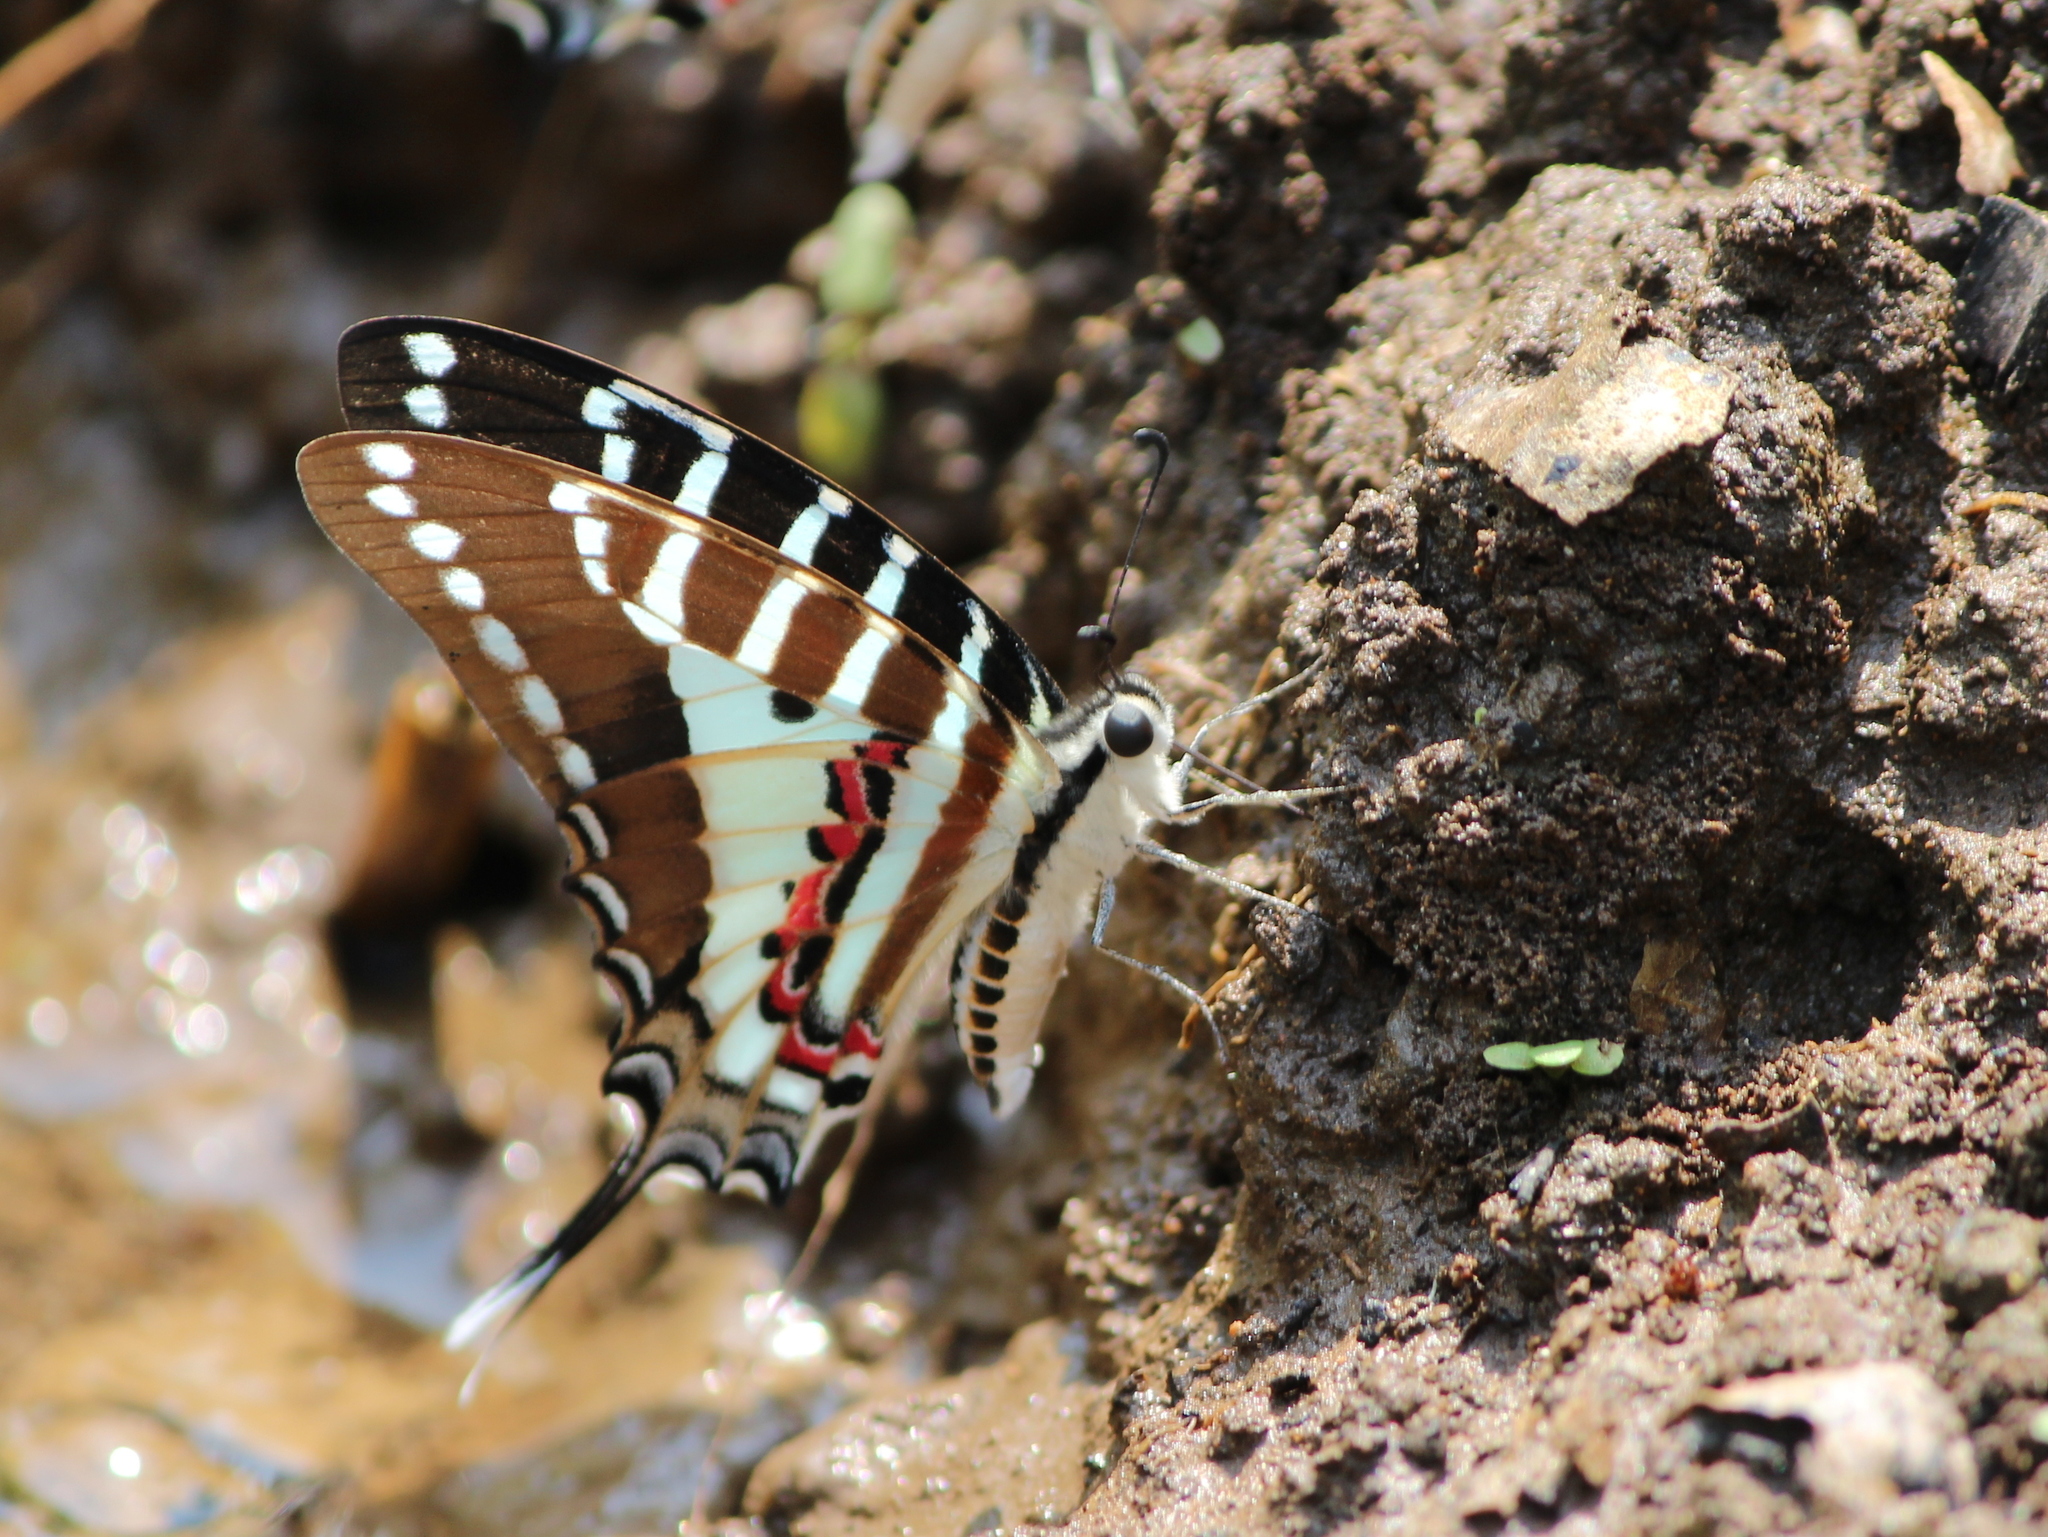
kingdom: Animalia
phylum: Arthropoda
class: Insecta
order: Lepidoptera
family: Papilionidae
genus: Graphium
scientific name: Graphium nomius
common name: Spot swordtail
